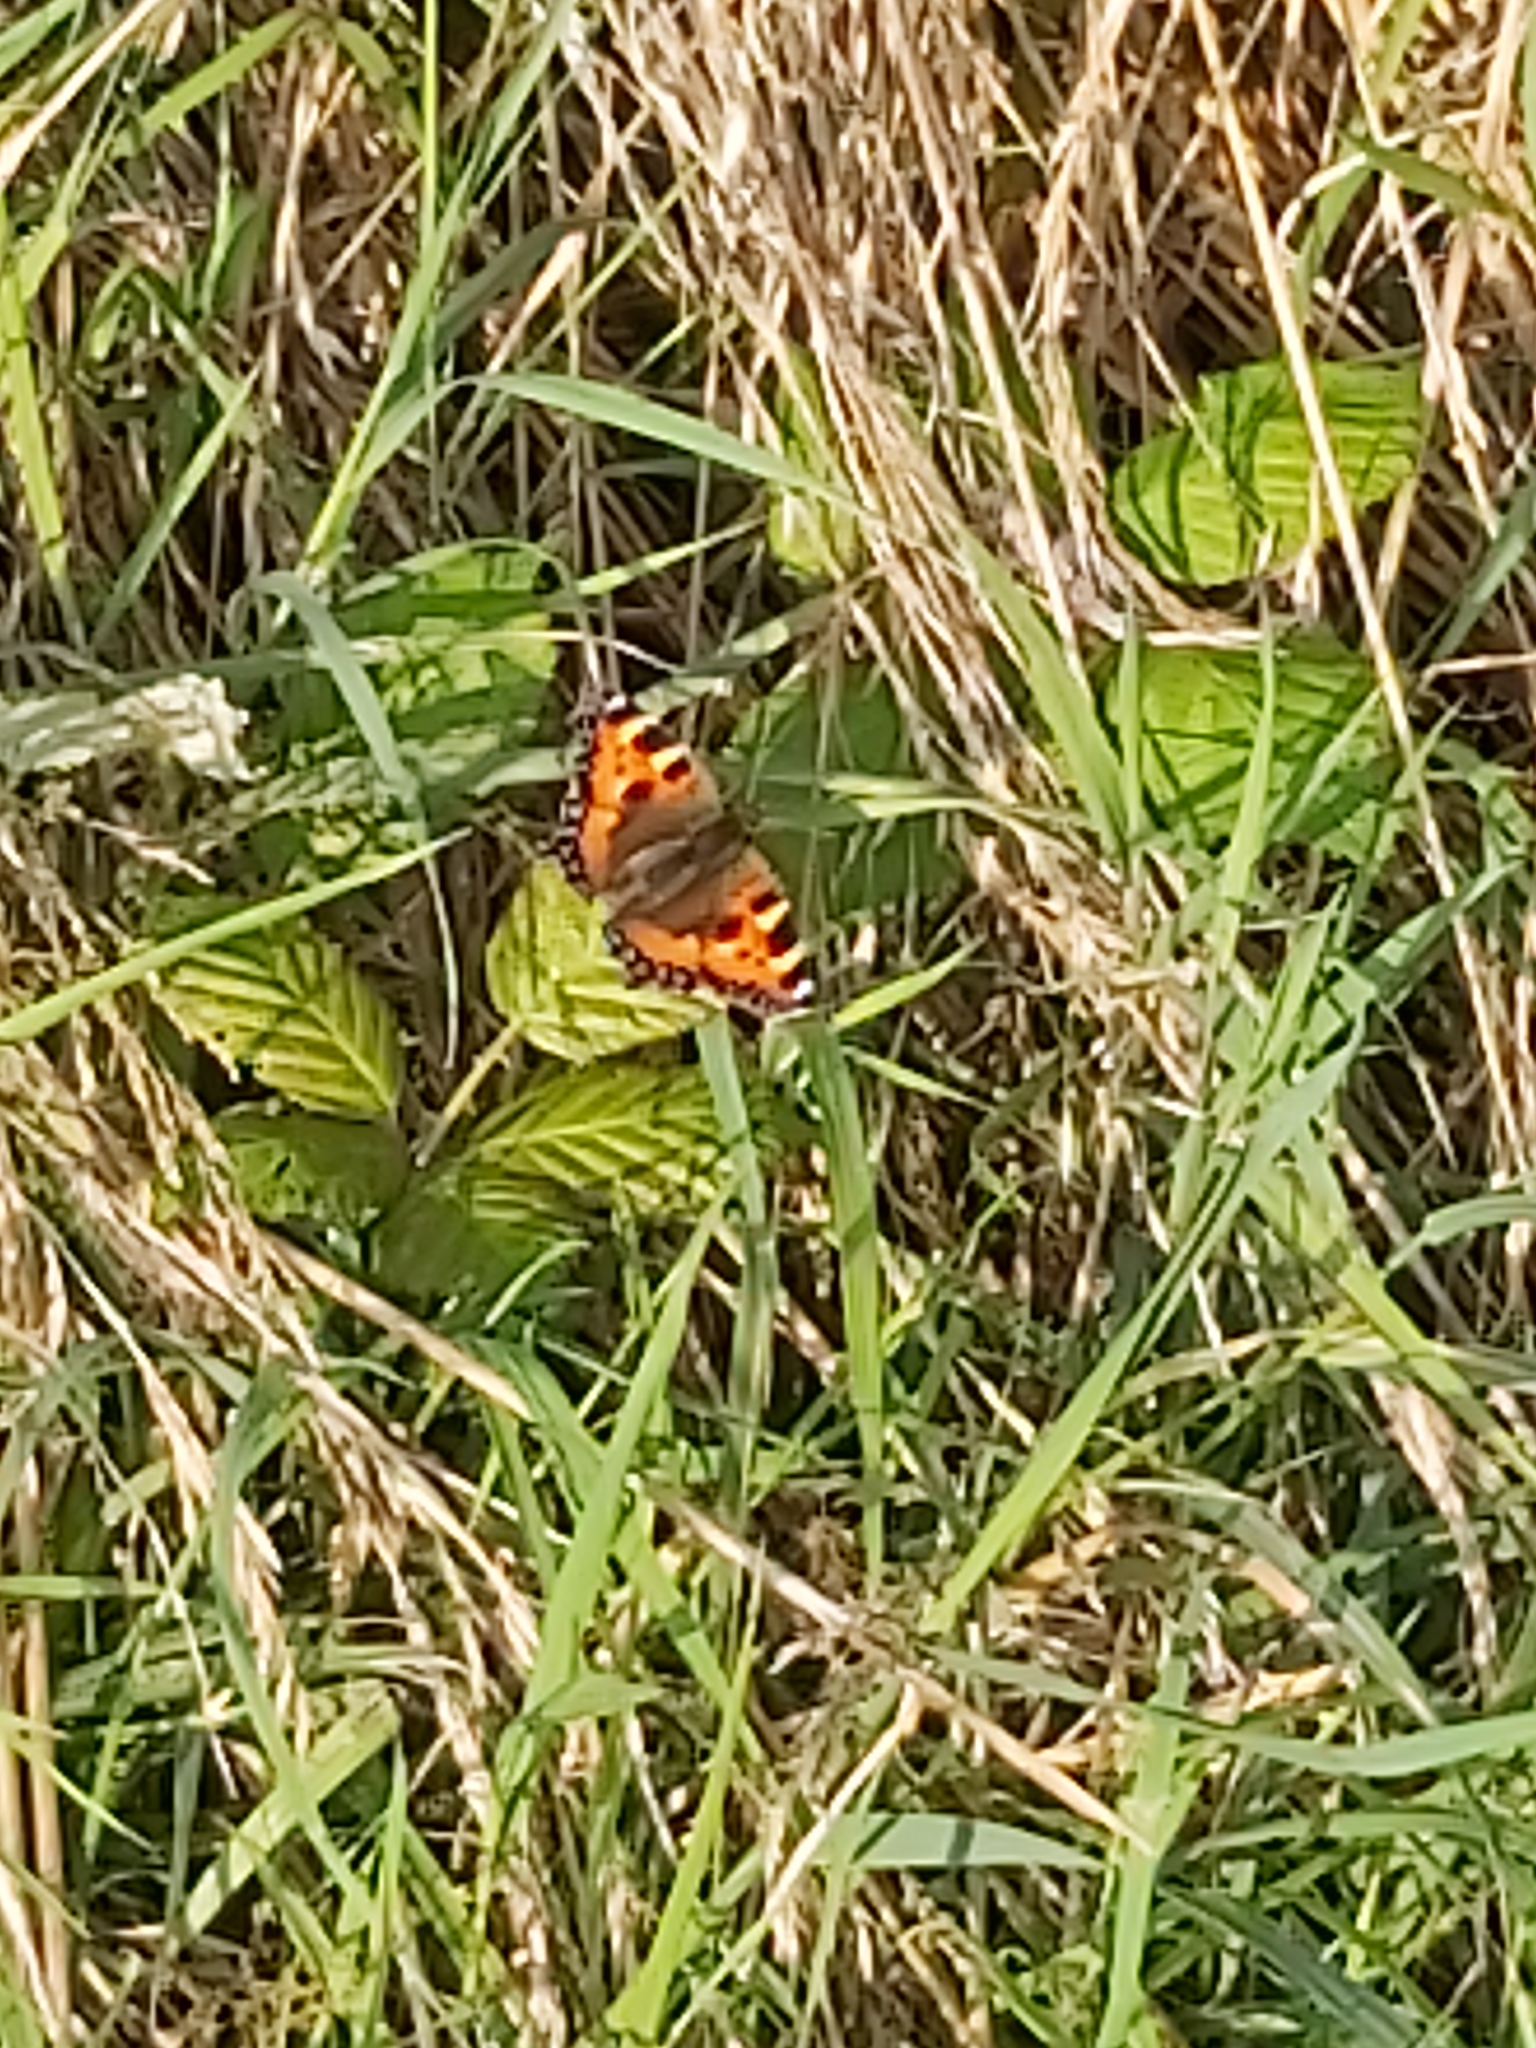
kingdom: Animalia
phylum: Arthropoda
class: Insecta
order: Lepidoptera
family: Nymphalidae
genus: Aglais
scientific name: Aglais urticae
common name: Small tortoiseshell
